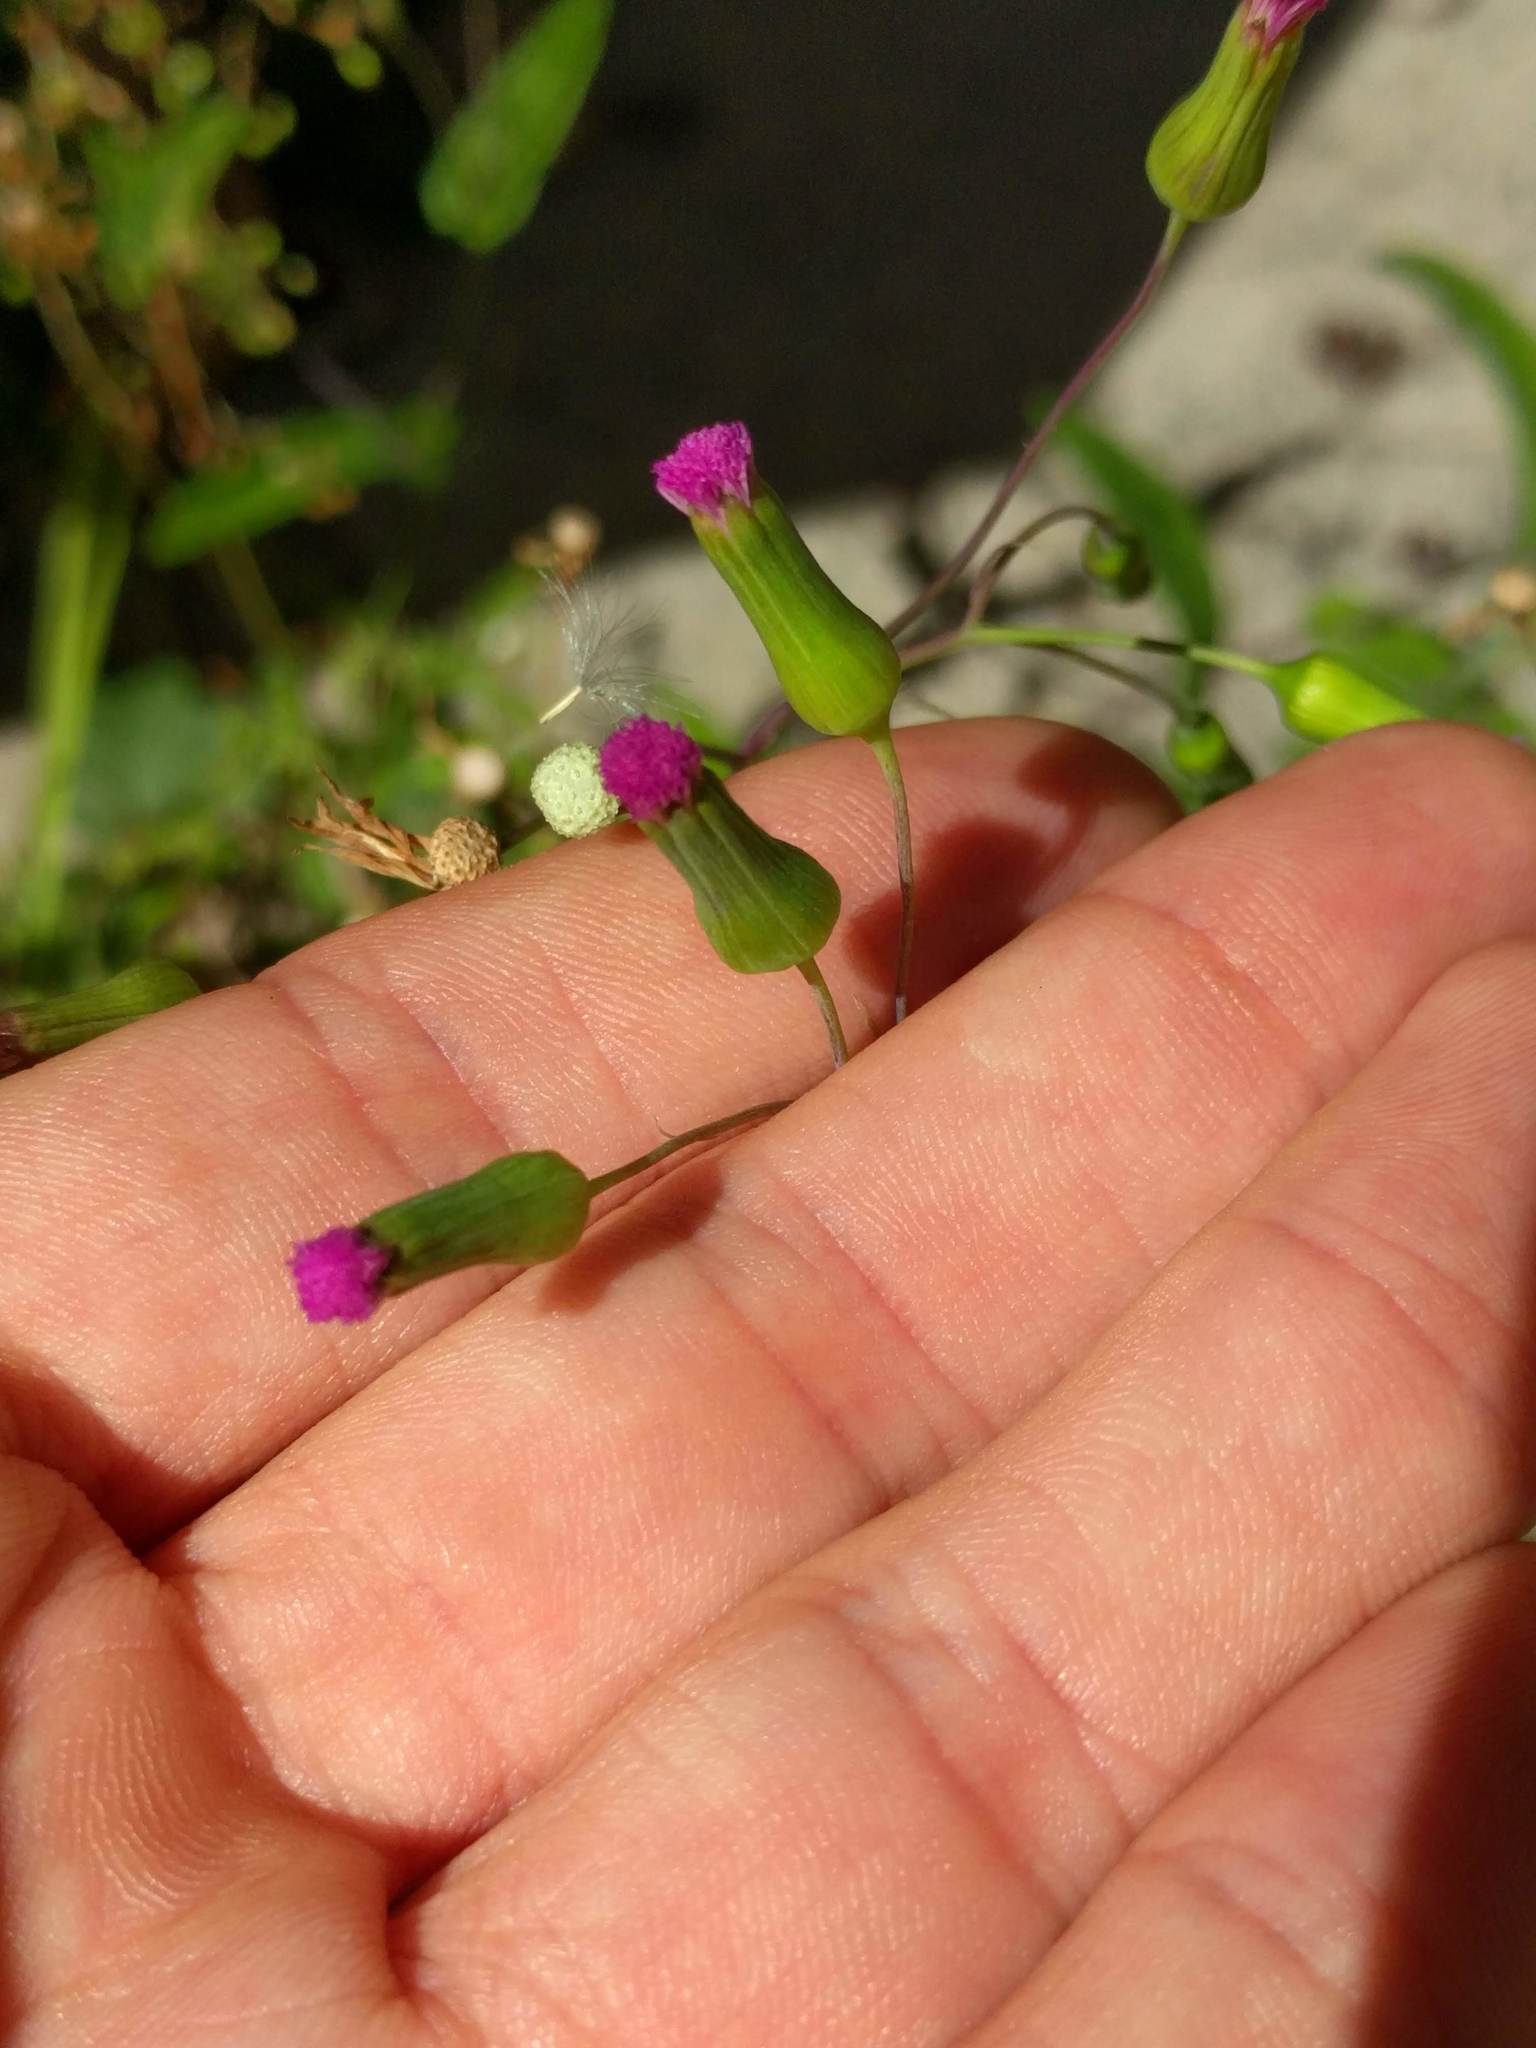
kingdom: Plantae
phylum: Tracheophyta
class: Magnoliopsida
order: Asterales
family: Asteraceae
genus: Emilia
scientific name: Emilia sonchifolia
